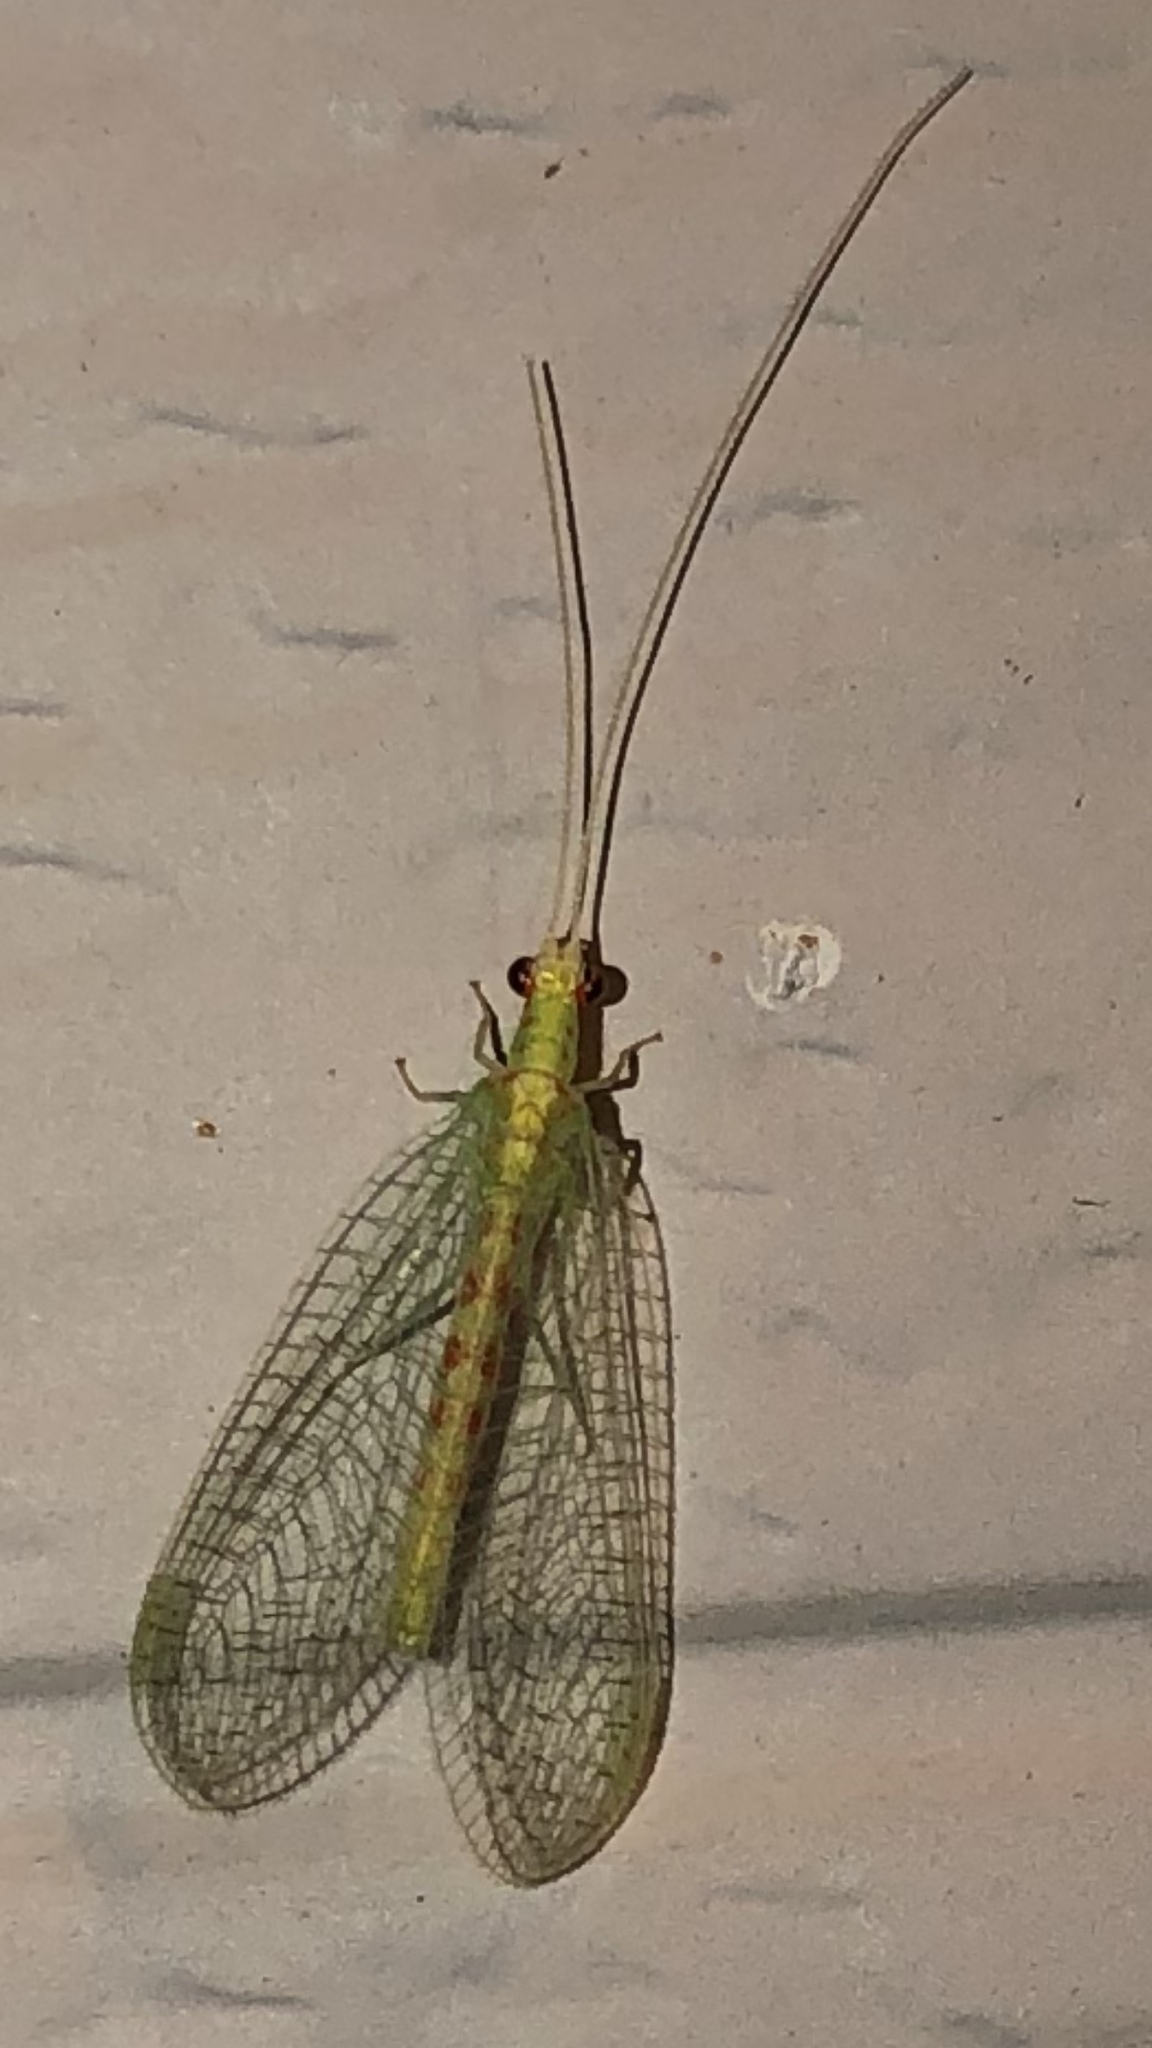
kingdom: Animalia
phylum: Arthropoda
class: Insecta
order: Neuroptera
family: Chrysopidae
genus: Chrysopa
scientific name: Chrysopa quadripunctata
